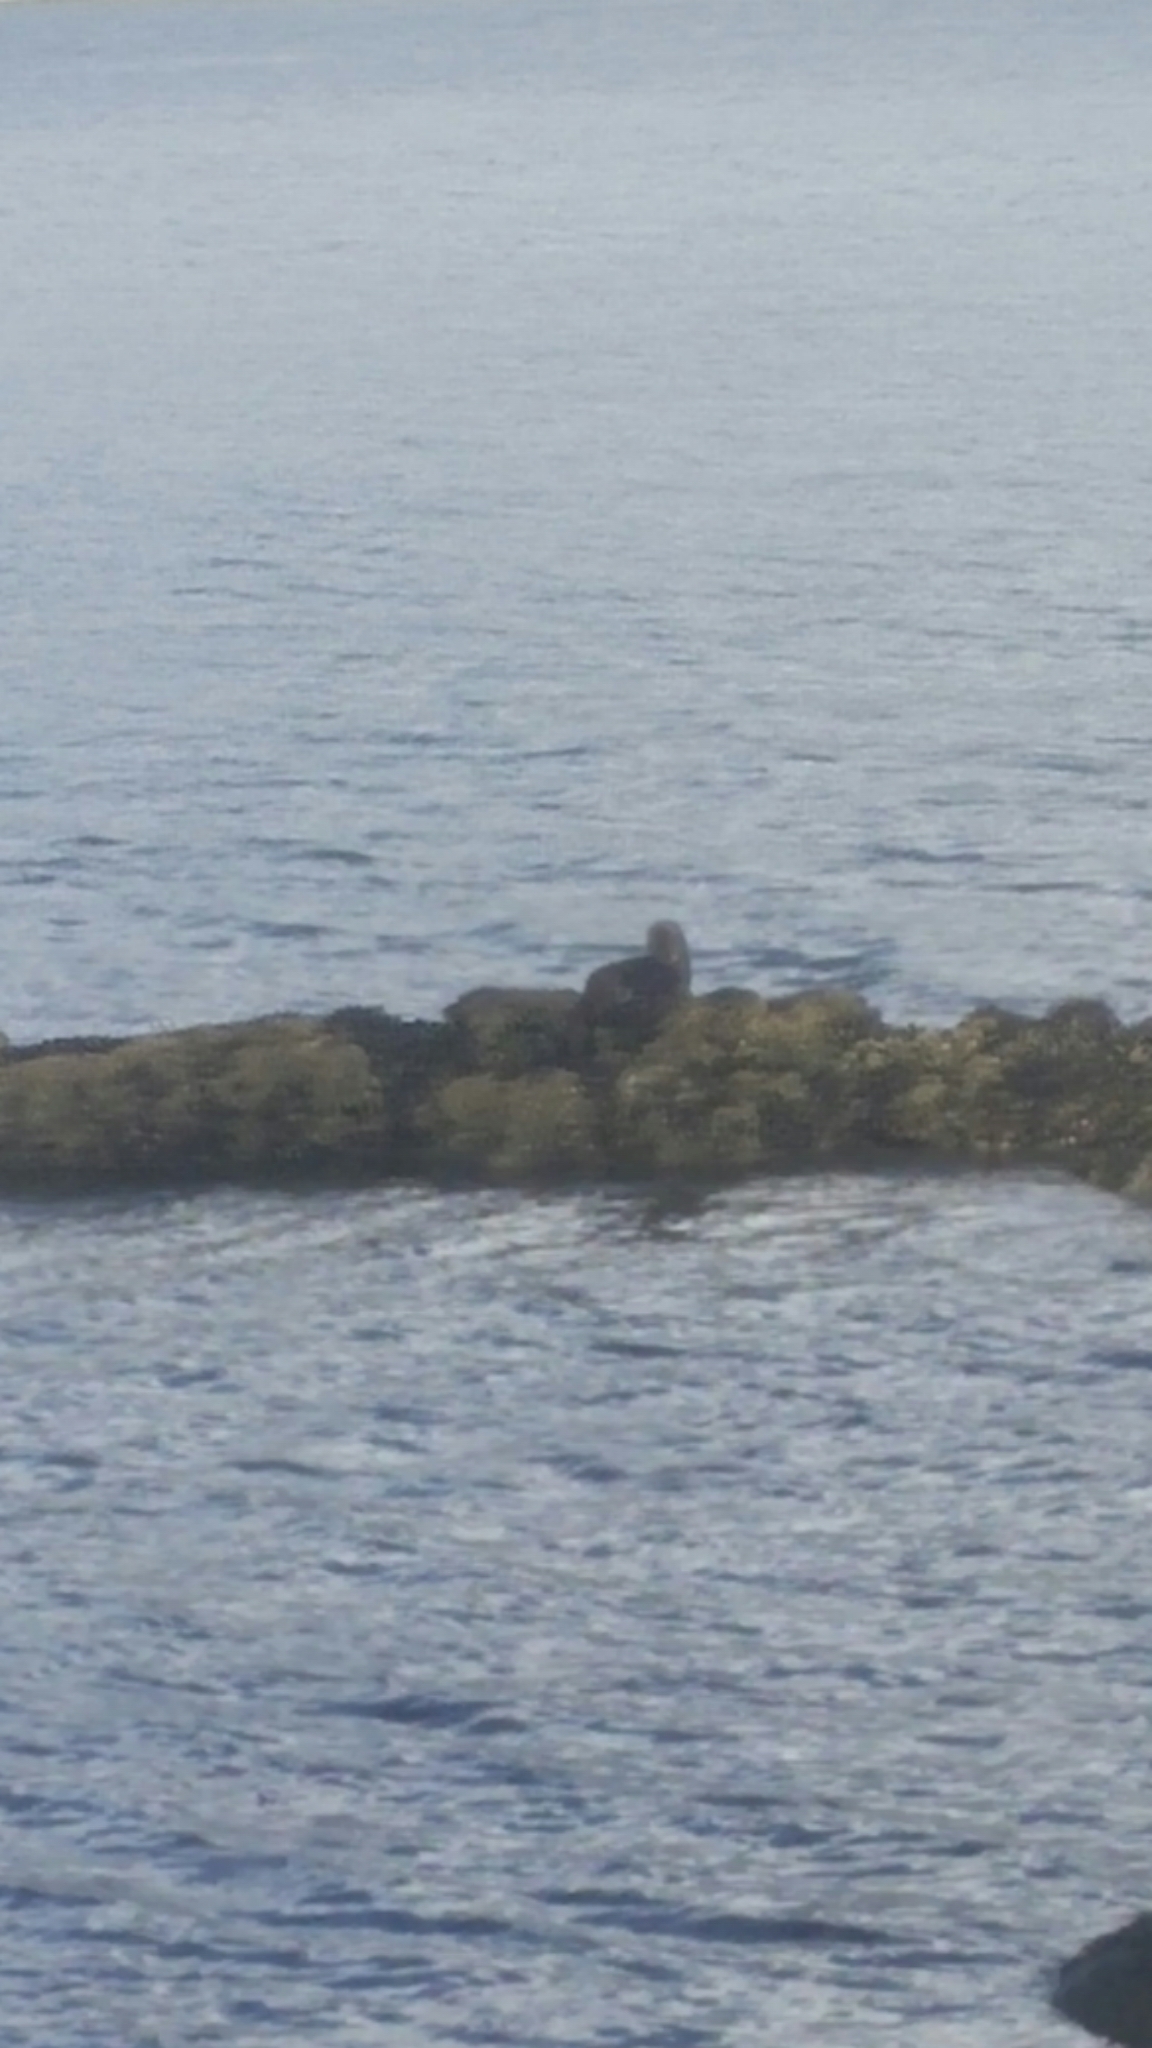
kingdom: Animalia
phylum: Chordata
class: Mammalia
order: Carnivora
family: Mustelidae
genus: Lontra
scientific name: Lontra canadensis
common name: North american river otter
